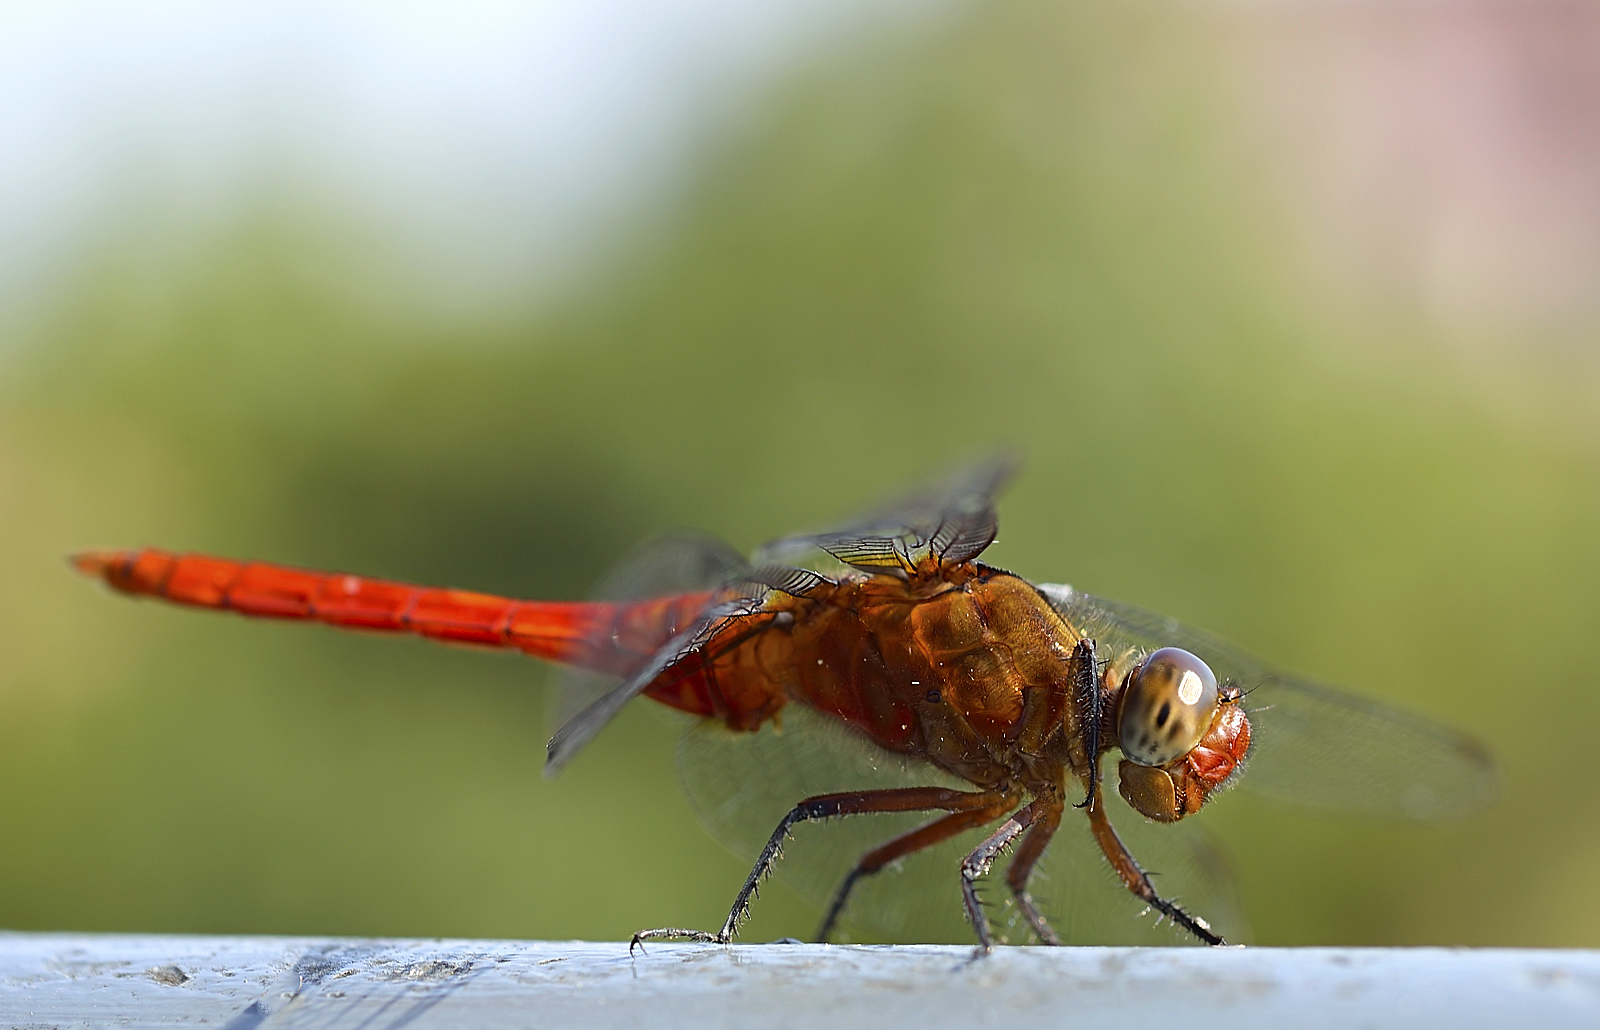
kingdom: Animalia
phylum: Arthropoda
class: Insecta
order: Odonata
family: Libellulidae
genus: Orthetrum
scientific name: Orthetrum chrysis
